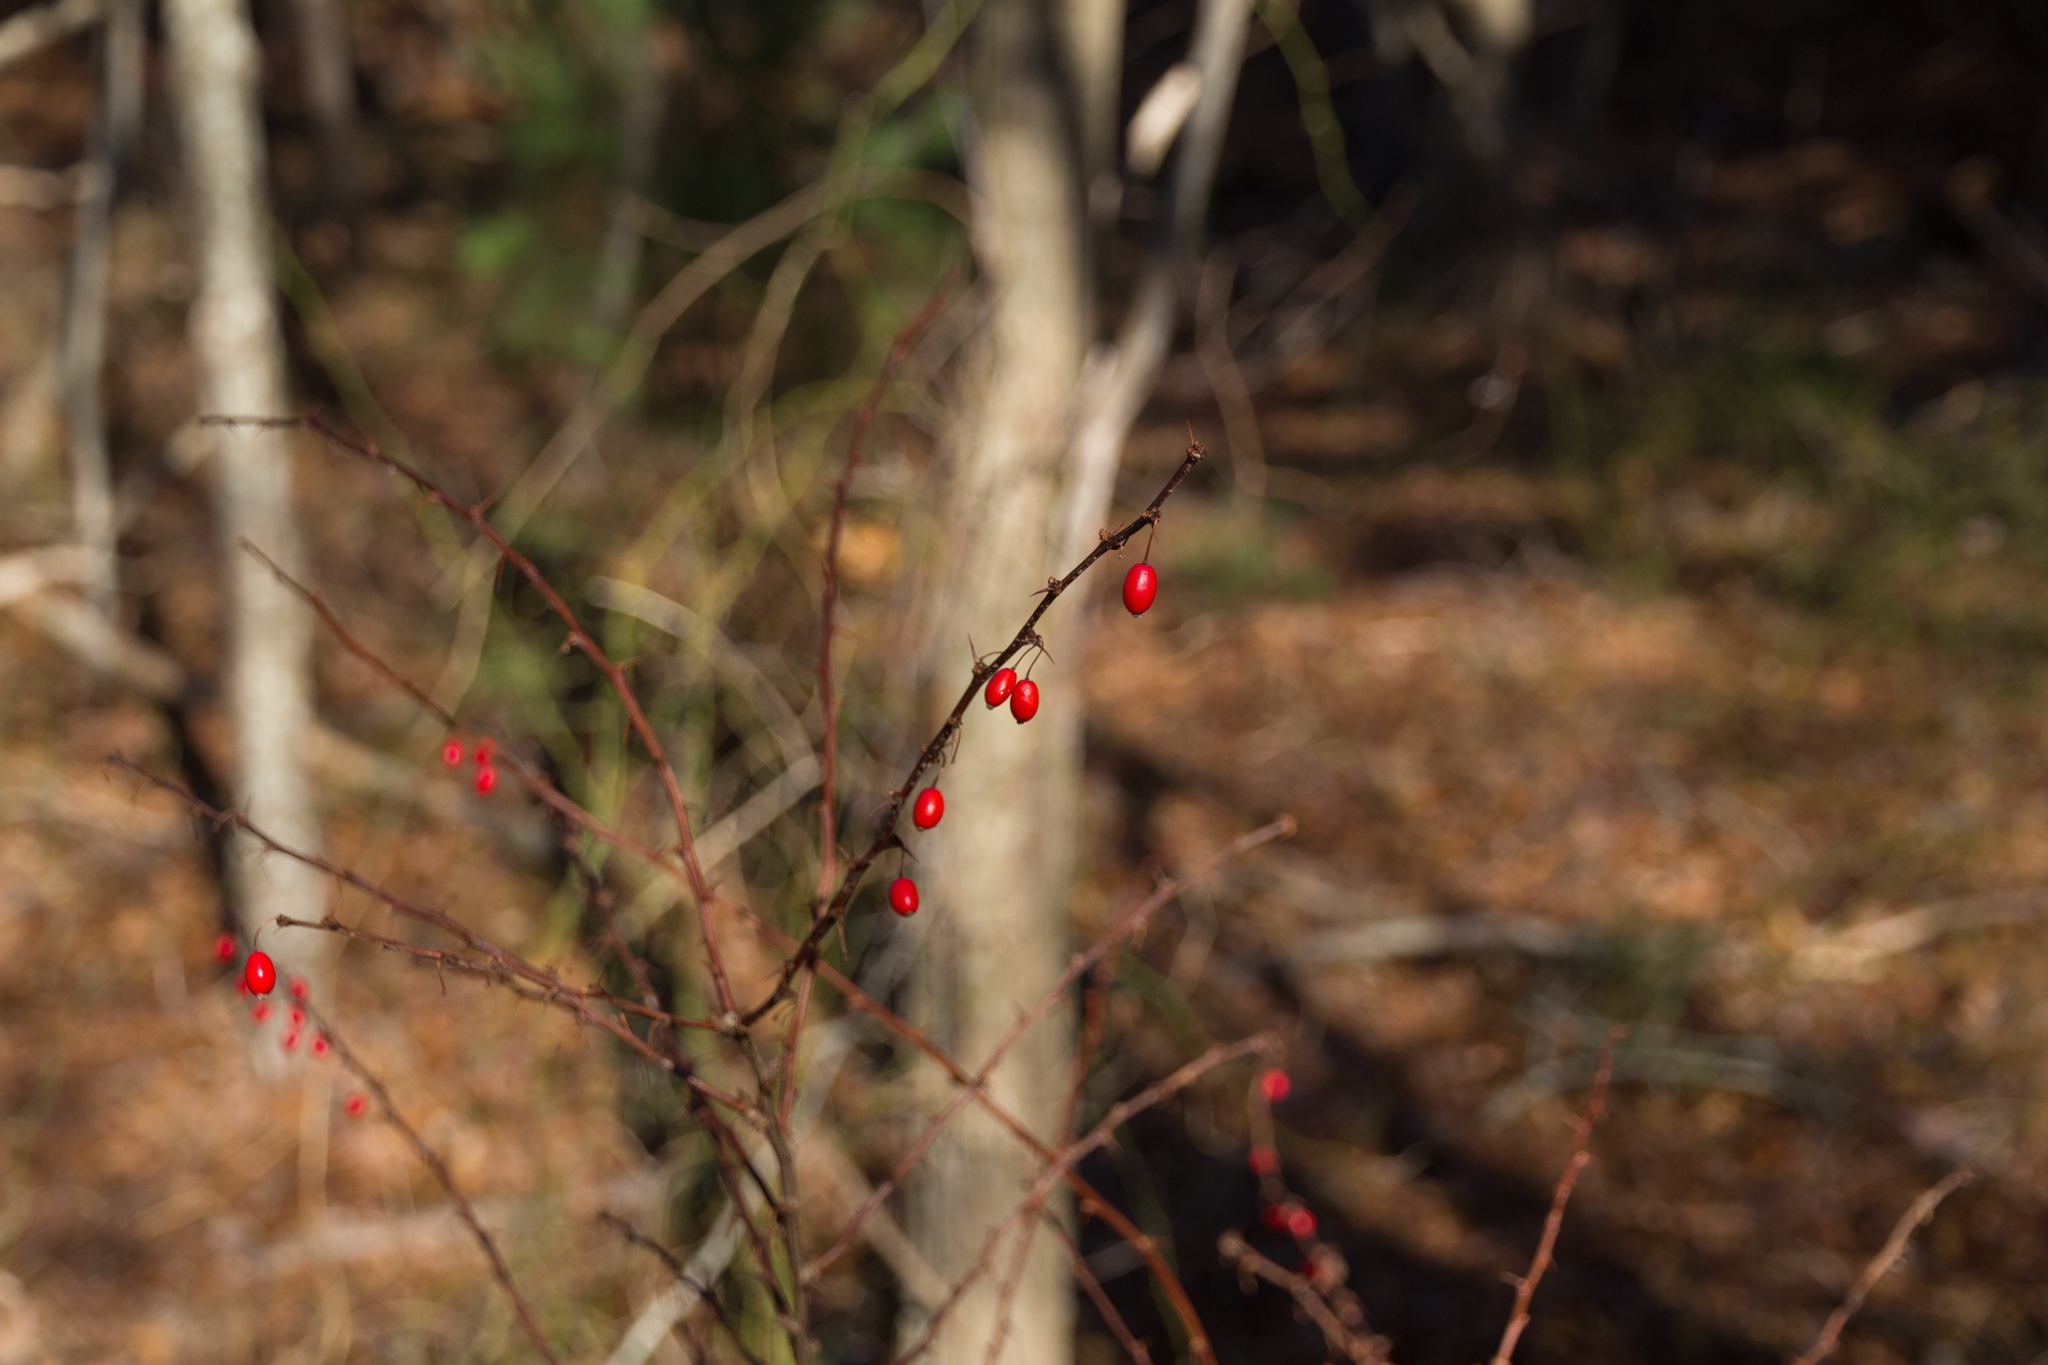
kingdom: Plantae
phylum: Tracheophyta
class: Magnoliopsida
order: Ranunculales
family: Berberidaceae
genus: Berberis
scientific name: Berberis thunbergii
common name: Japanese barberry
